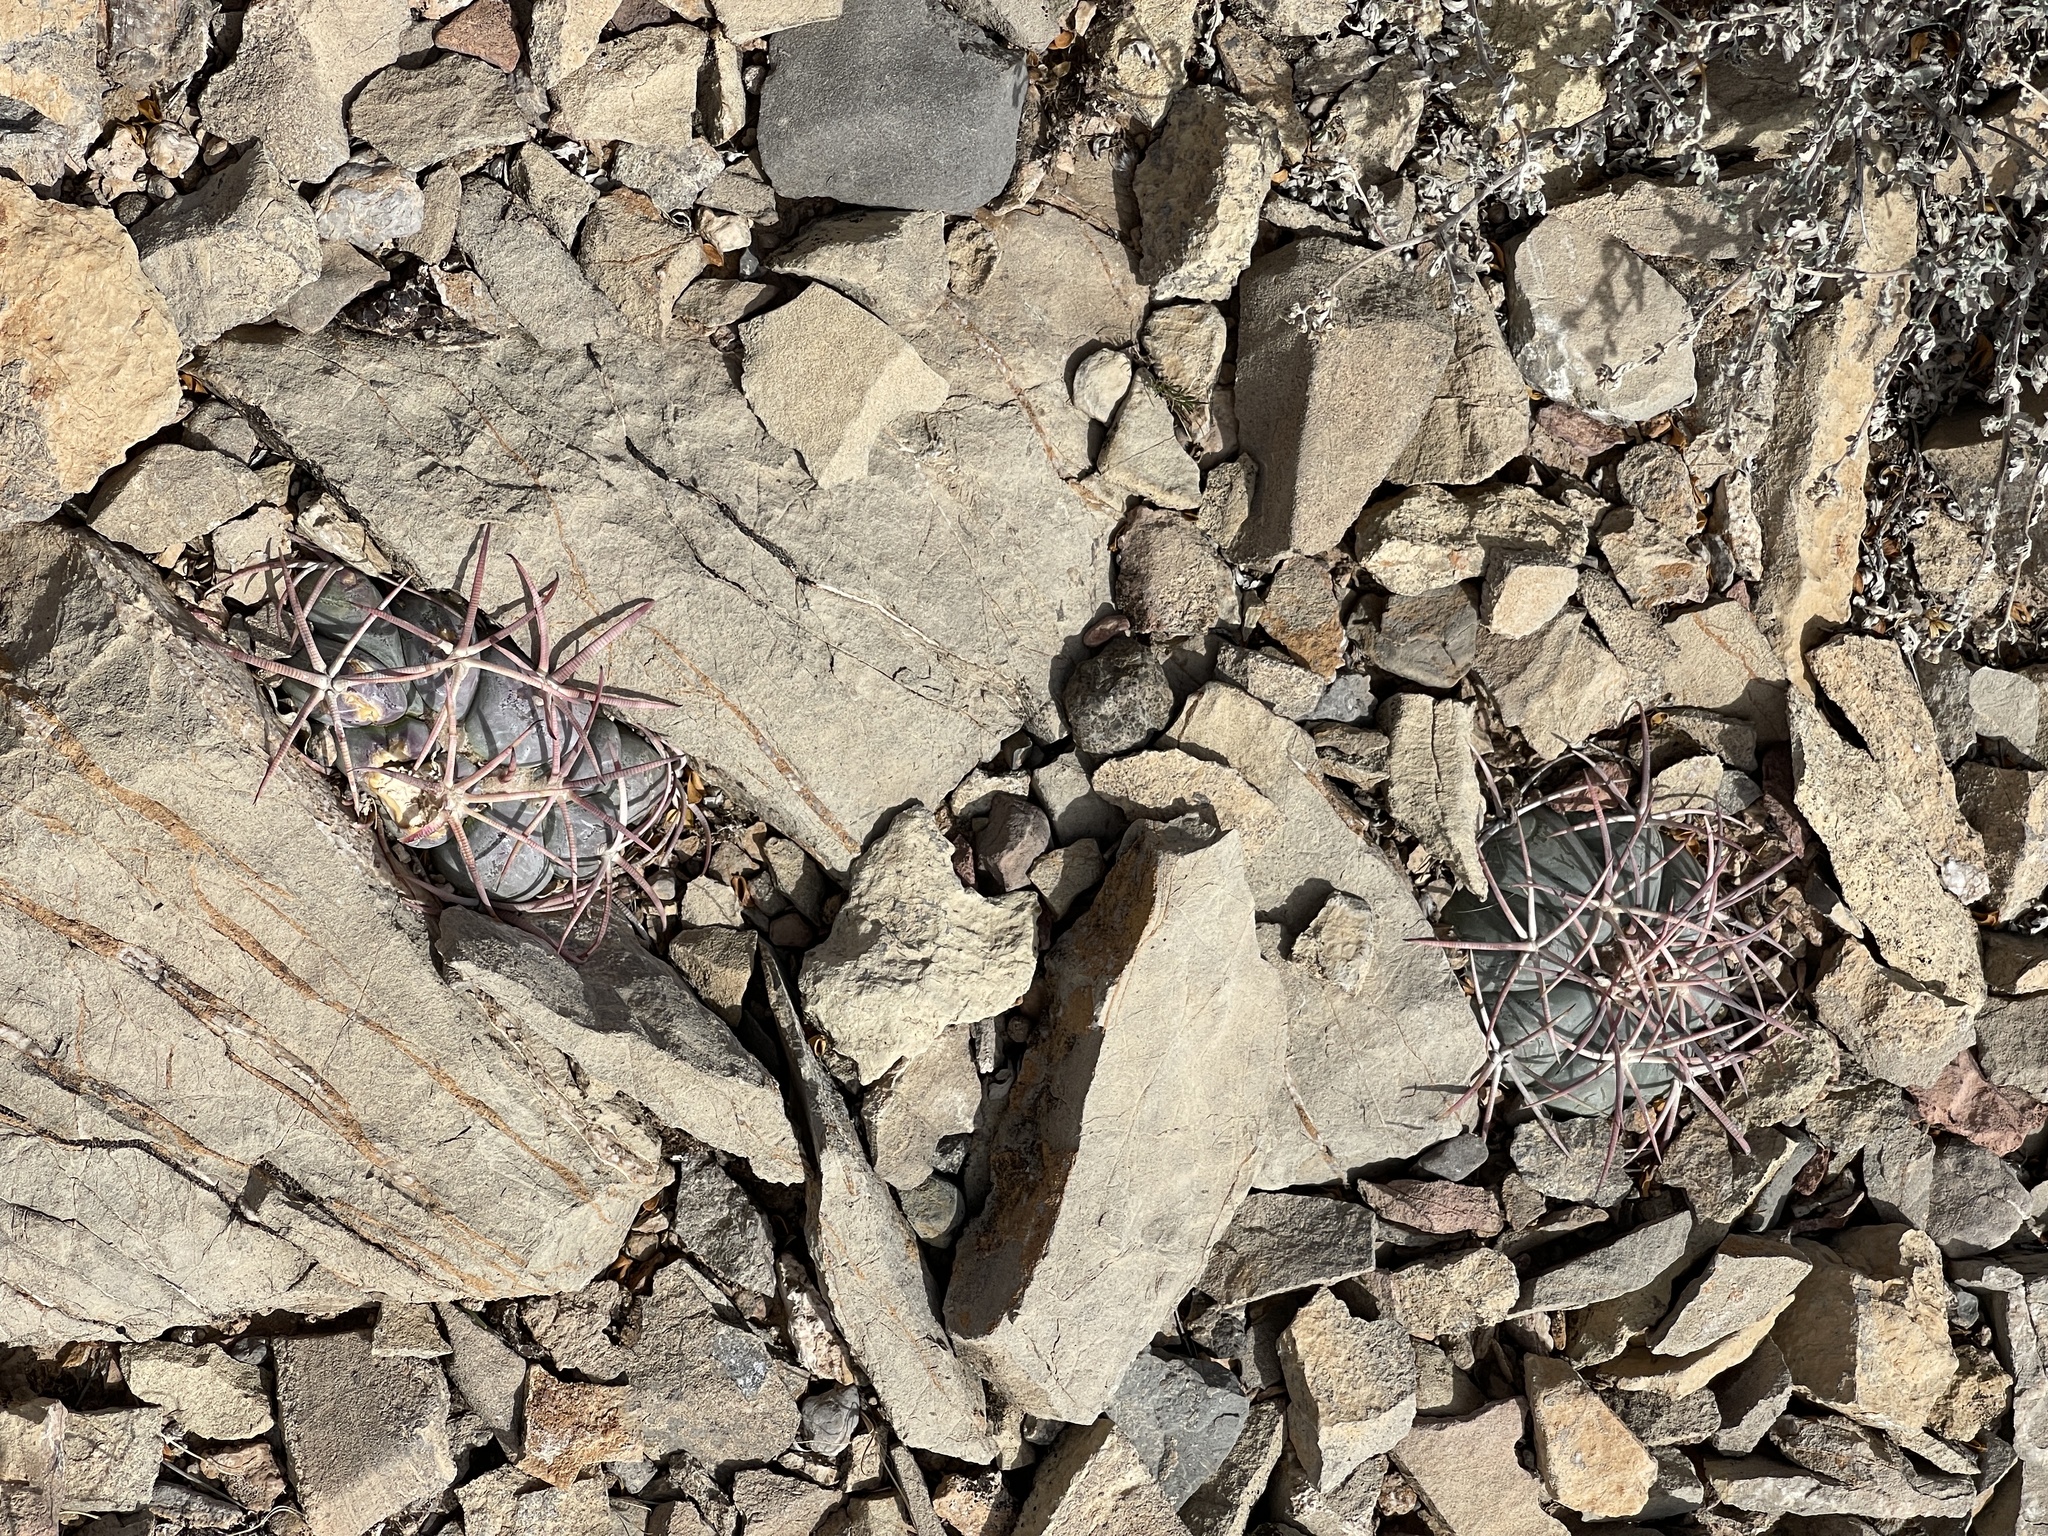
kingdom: Plantae
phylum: Tracheophyta
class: Magnoliopsida
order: Caryophyllales
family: Cactaceae
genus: Echinocactus
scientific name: Echinocactus horizonthalonius
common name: Devilshead
